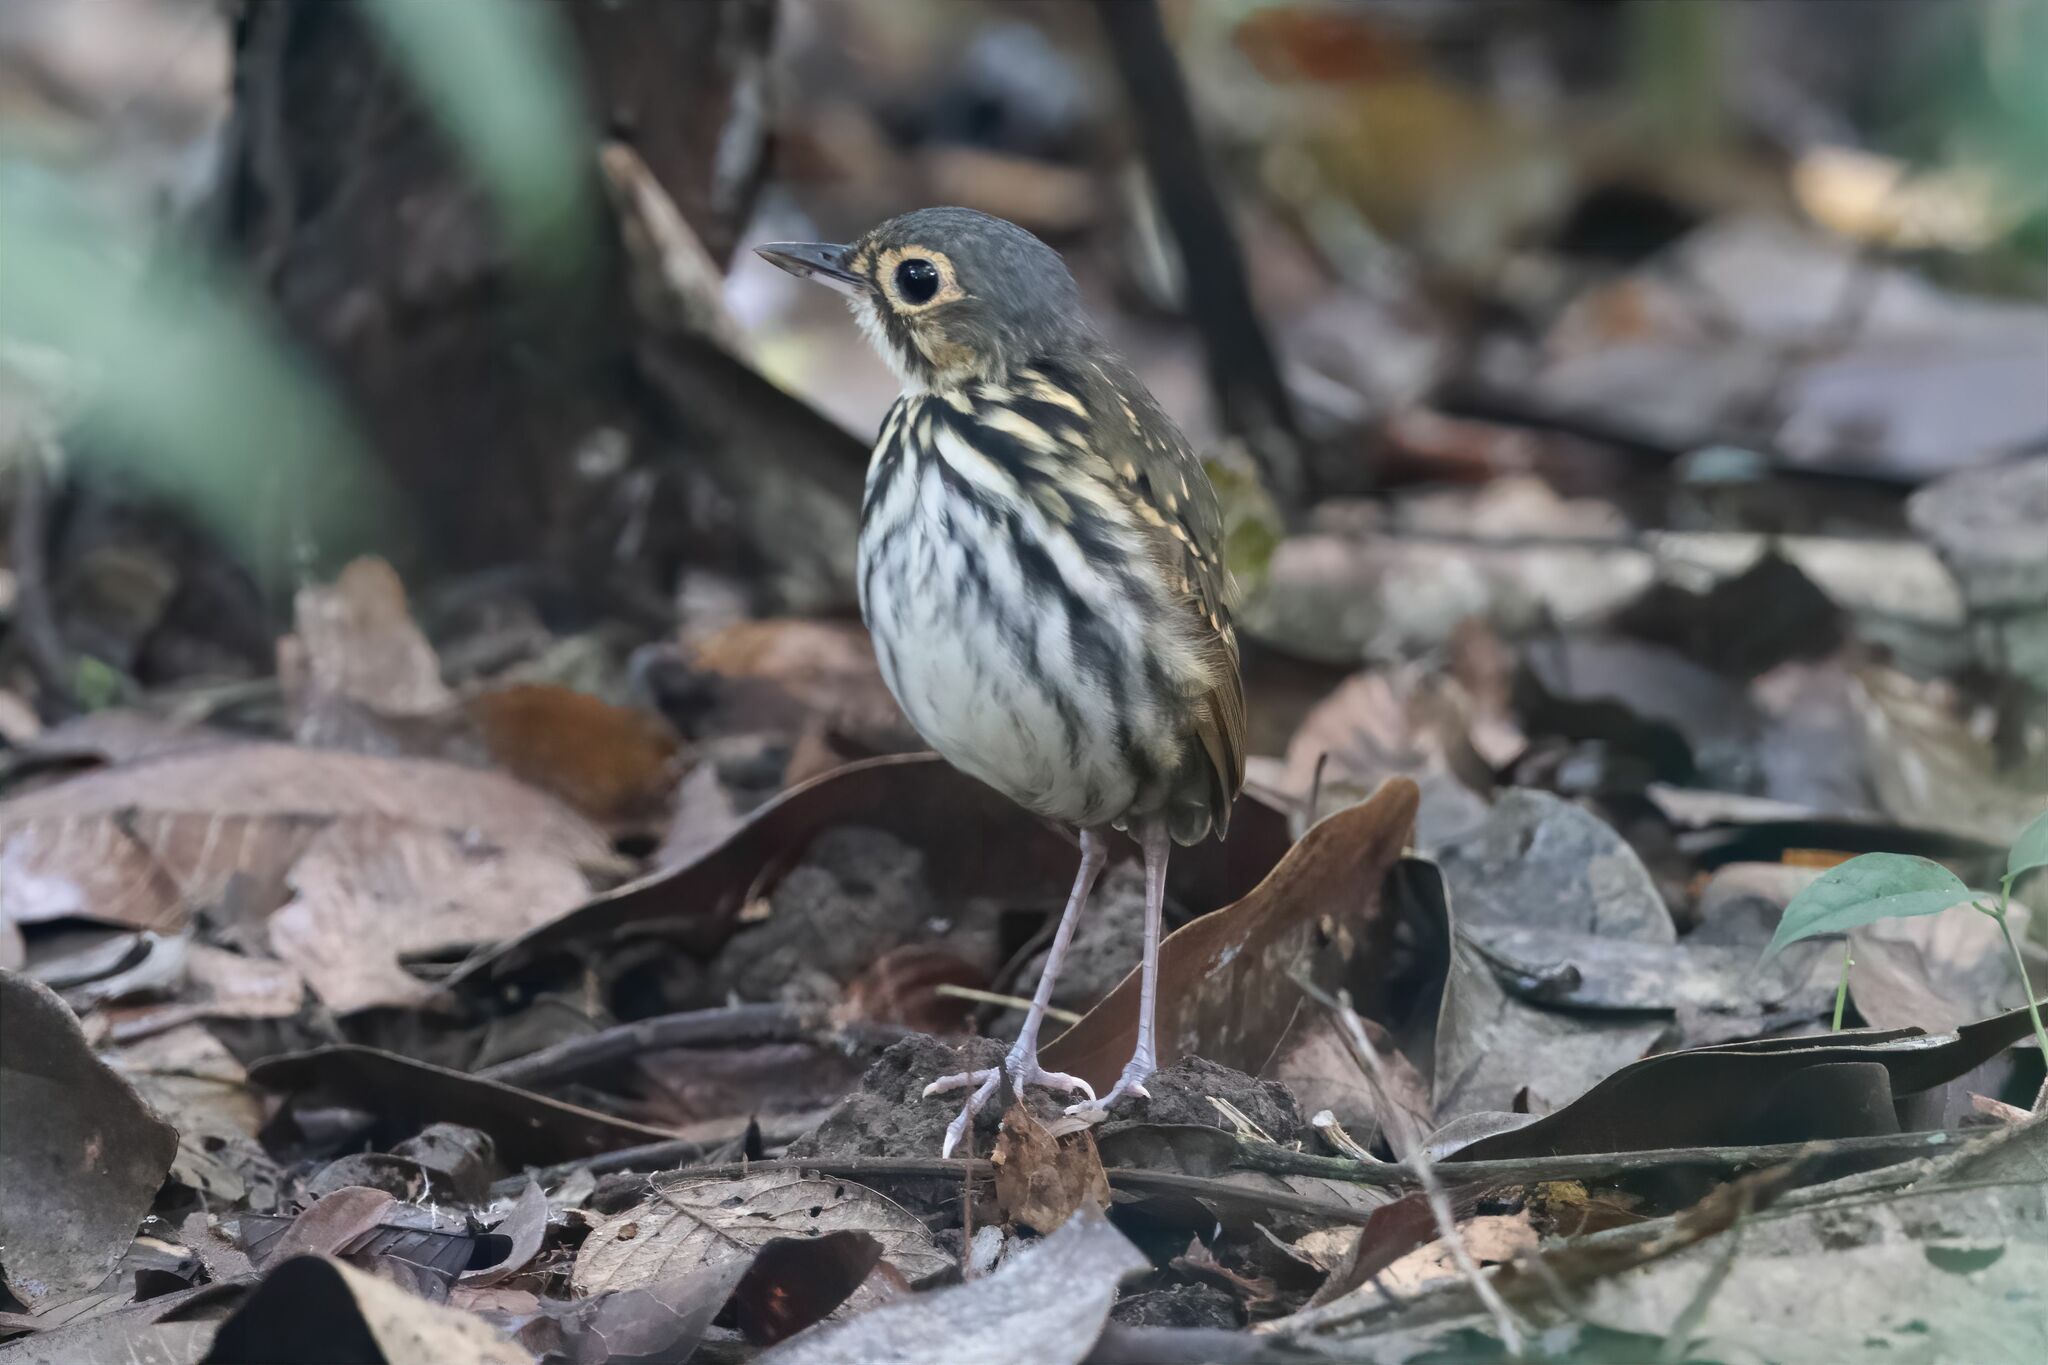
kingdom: Animalia
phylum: Chordata
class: Aves
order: Passeriformes
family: Grallariidae
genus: Hylopezus
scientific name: Hylopezus perspicillatus
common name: Streak-chested antpitta
